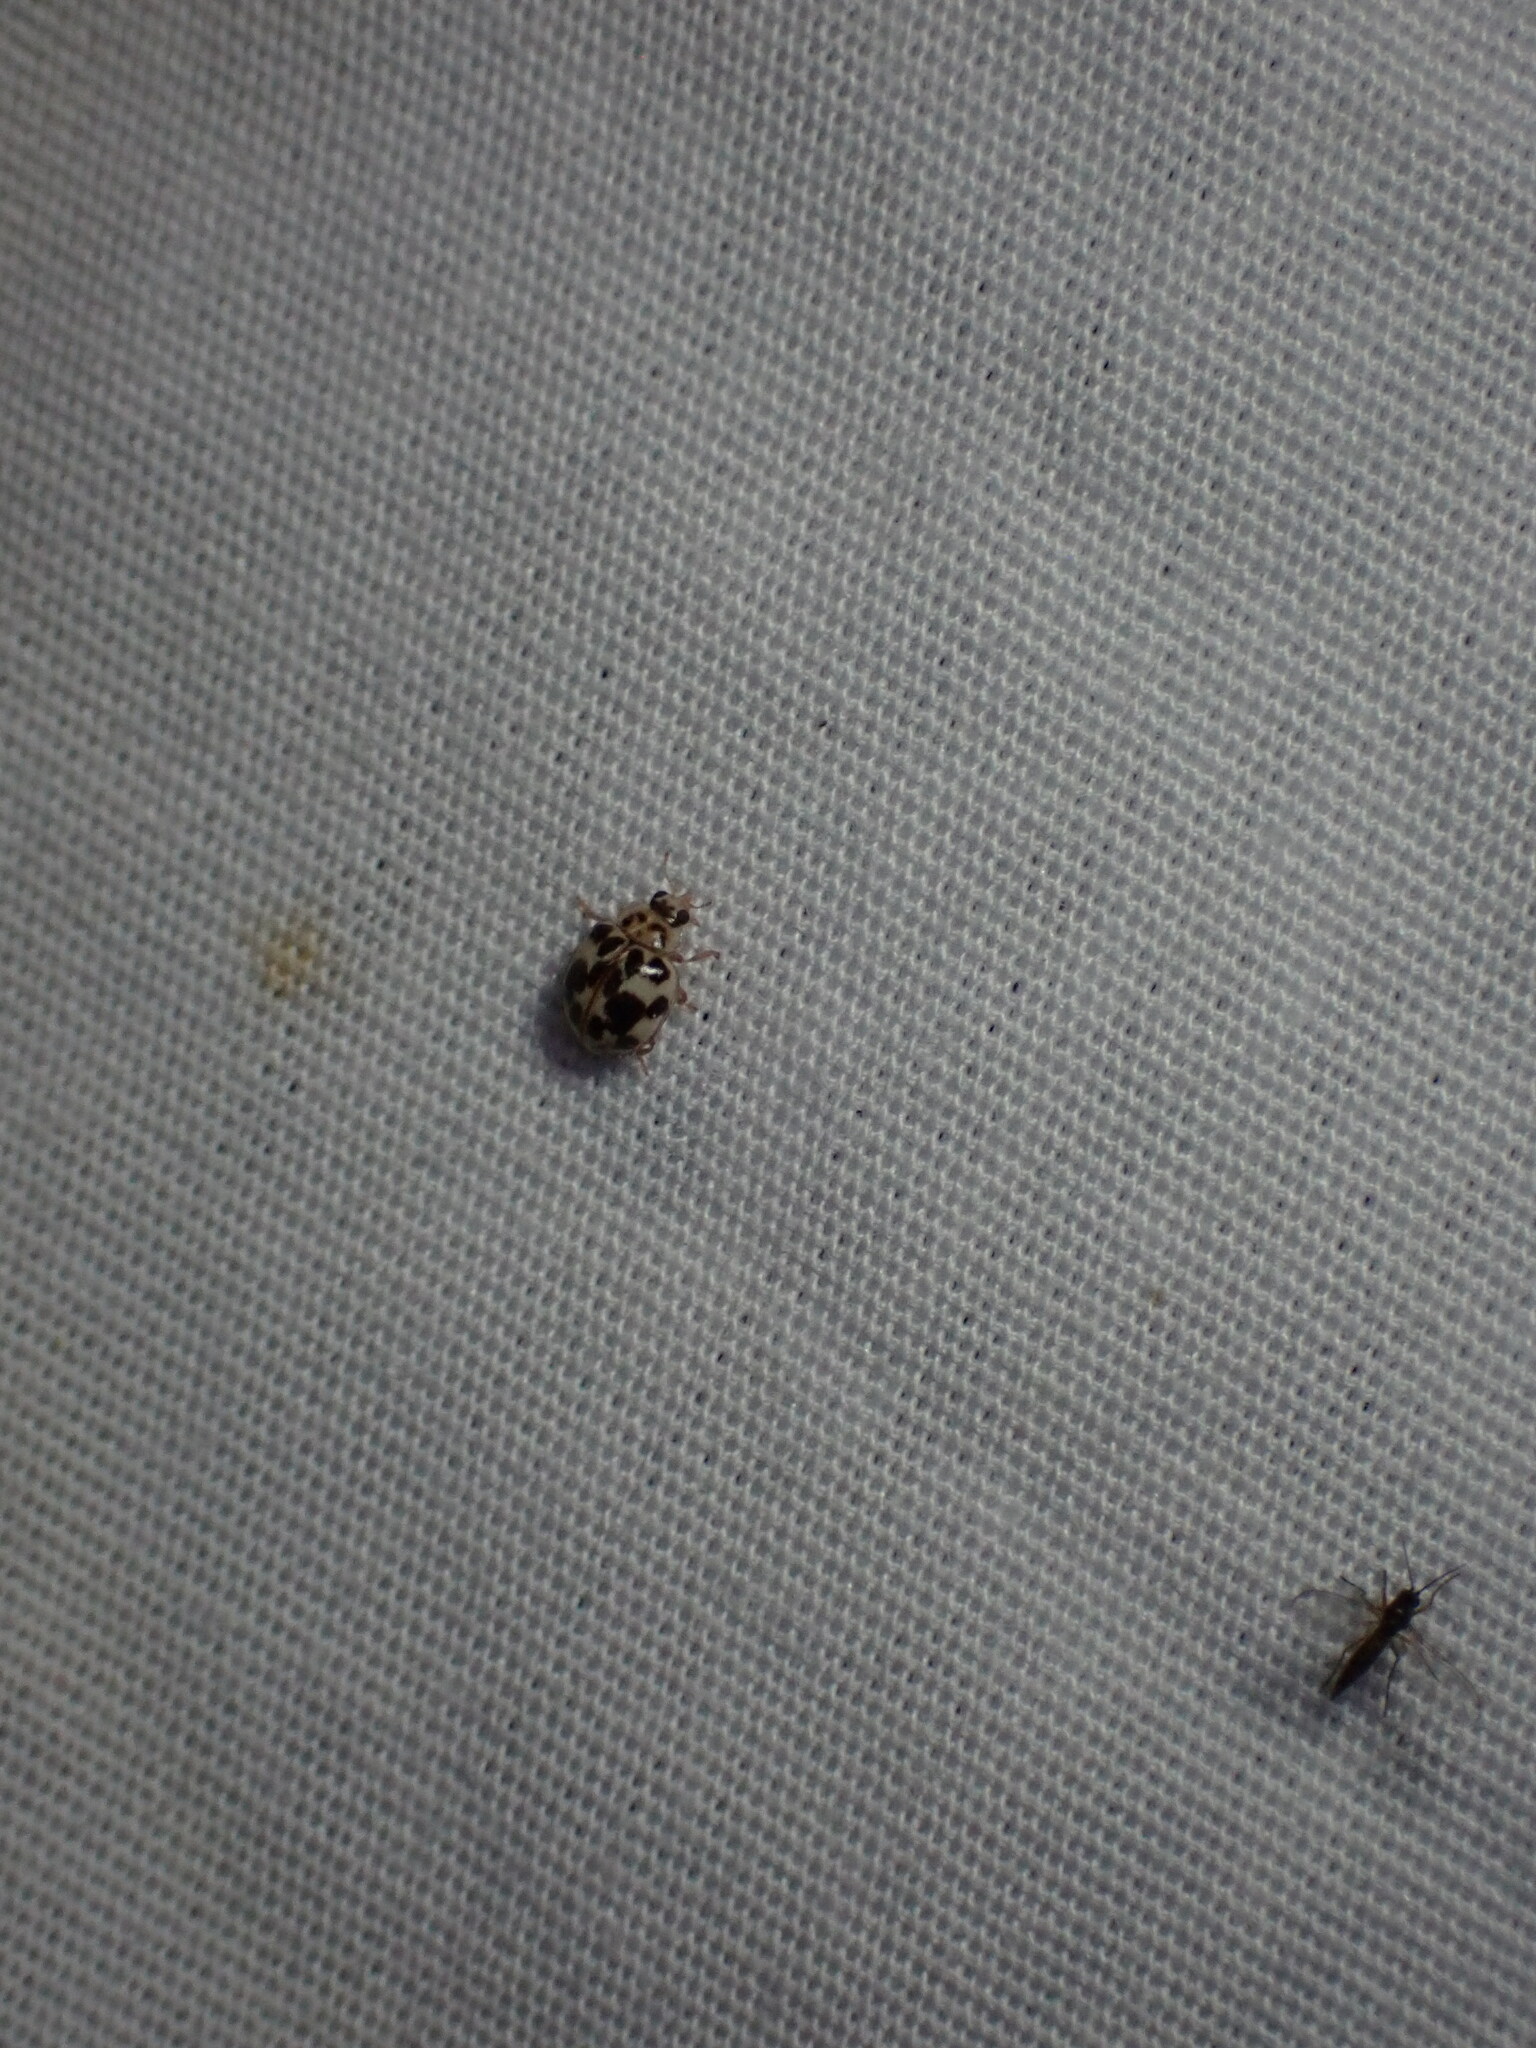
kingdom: Animalia
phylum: Arthropoda
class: Insecta
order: Coleoptera
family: Coccinellidae
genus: Psyllobora
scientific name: Psyllobora vigintimaculata
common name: Ladybird beetle
